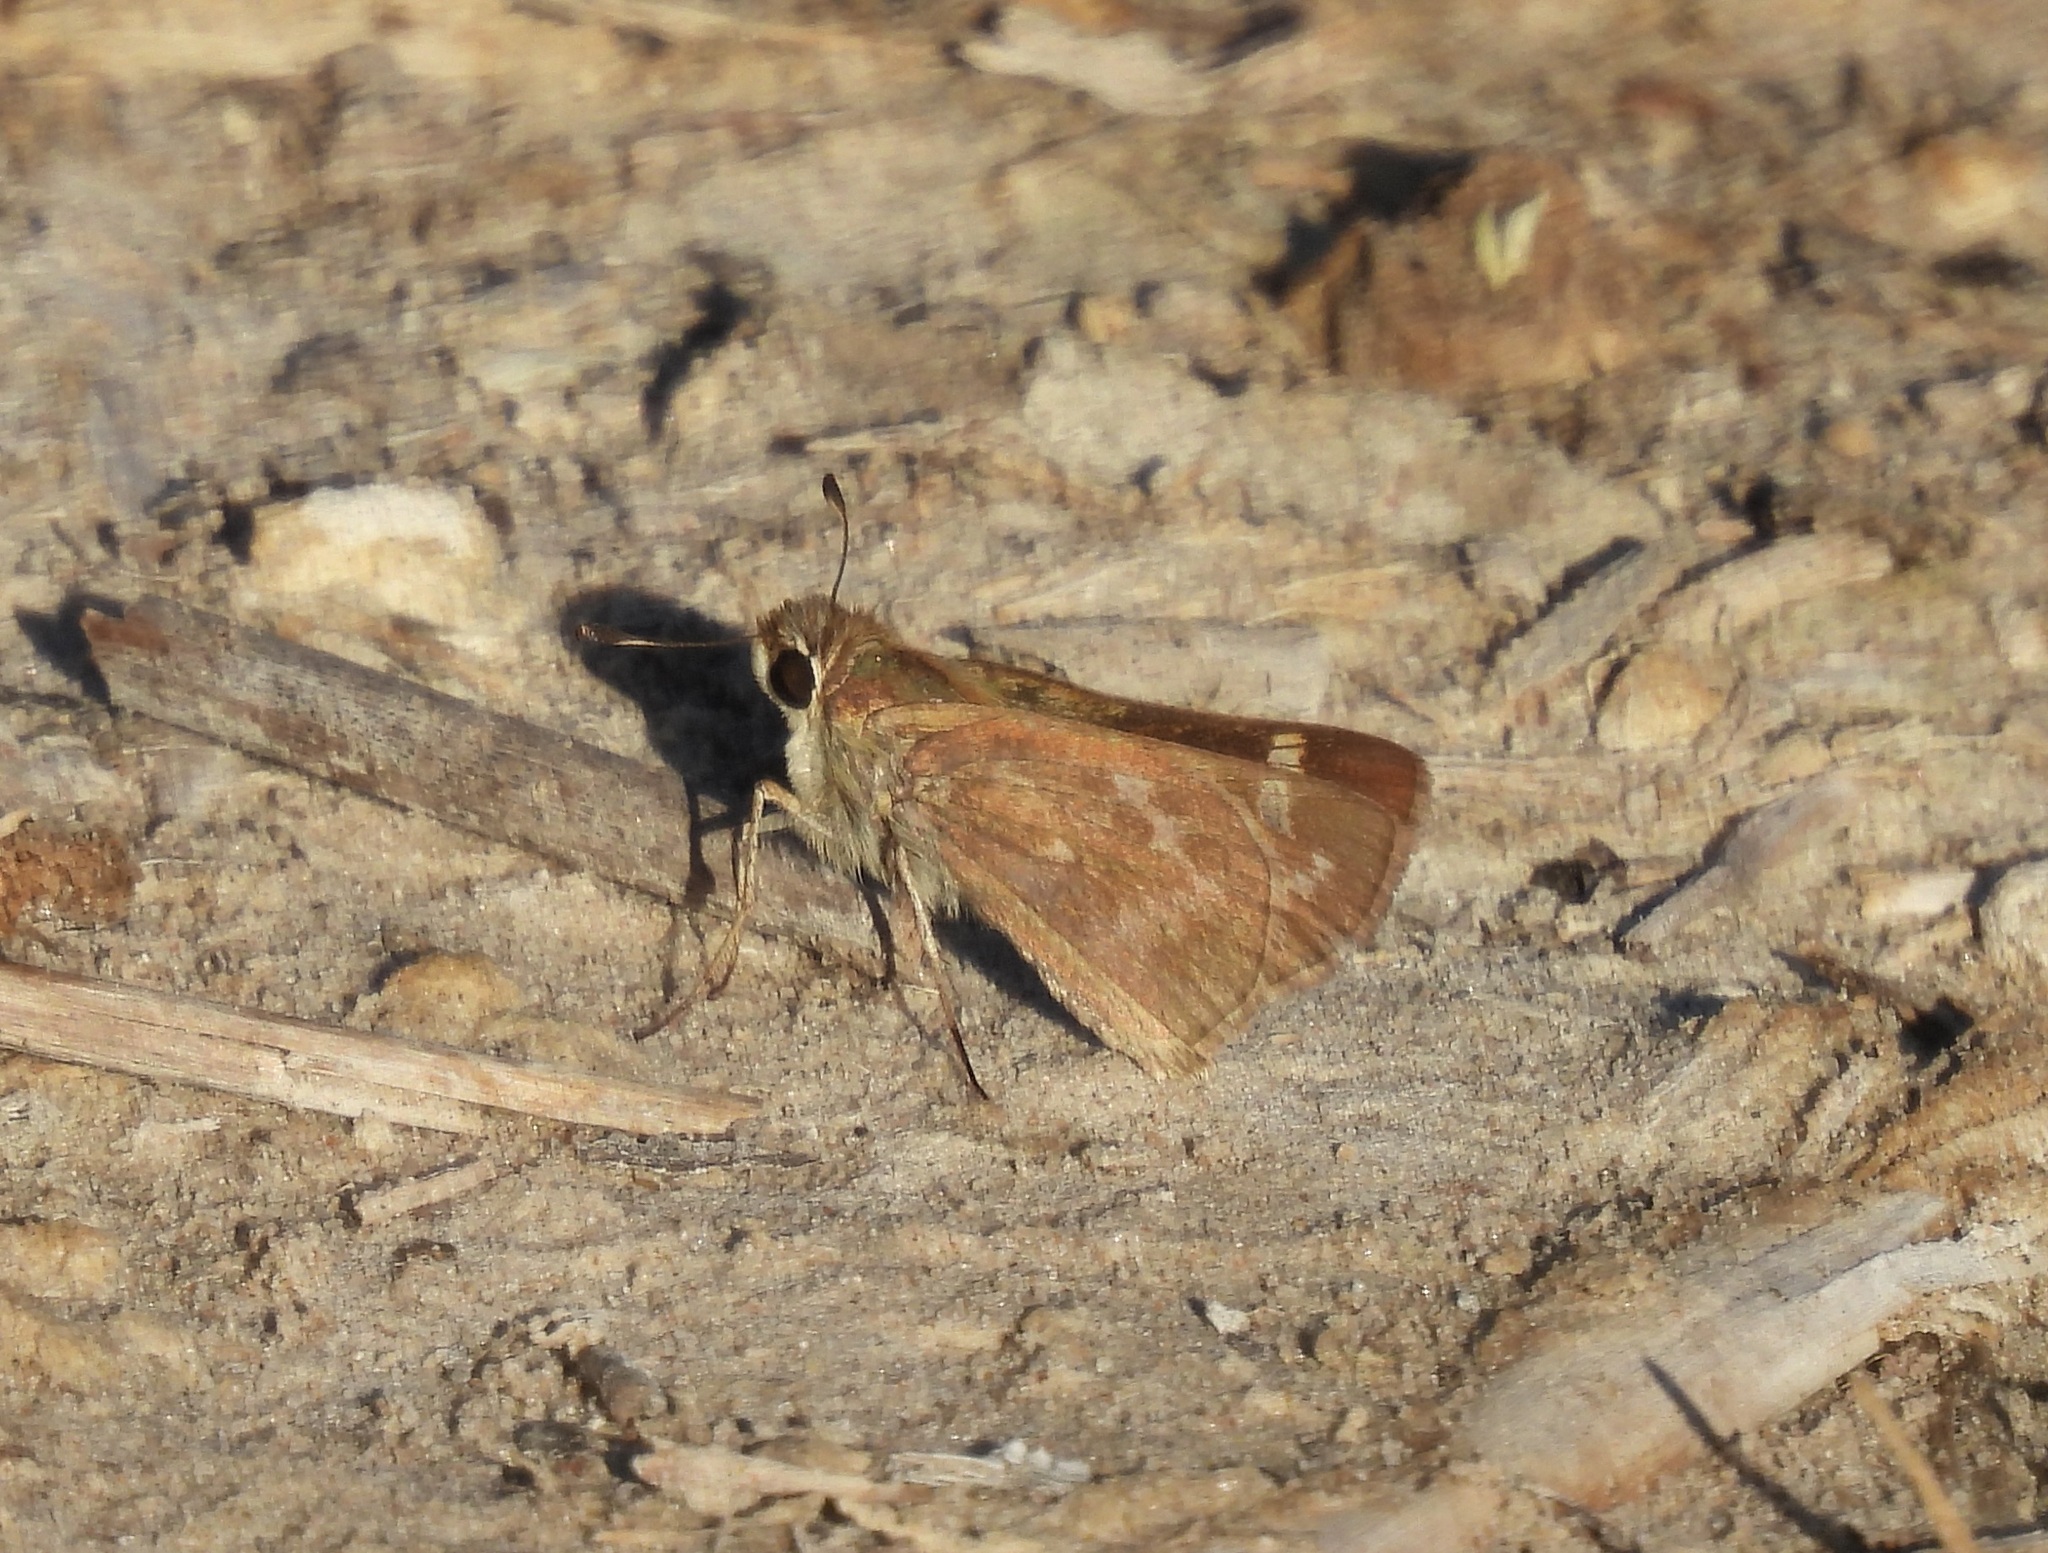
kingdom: Animalia
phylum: Arthropoda
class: Insecta
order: Lepidoptera
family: Hesperiidae
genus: Atalopedes
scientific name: Atalopedes
